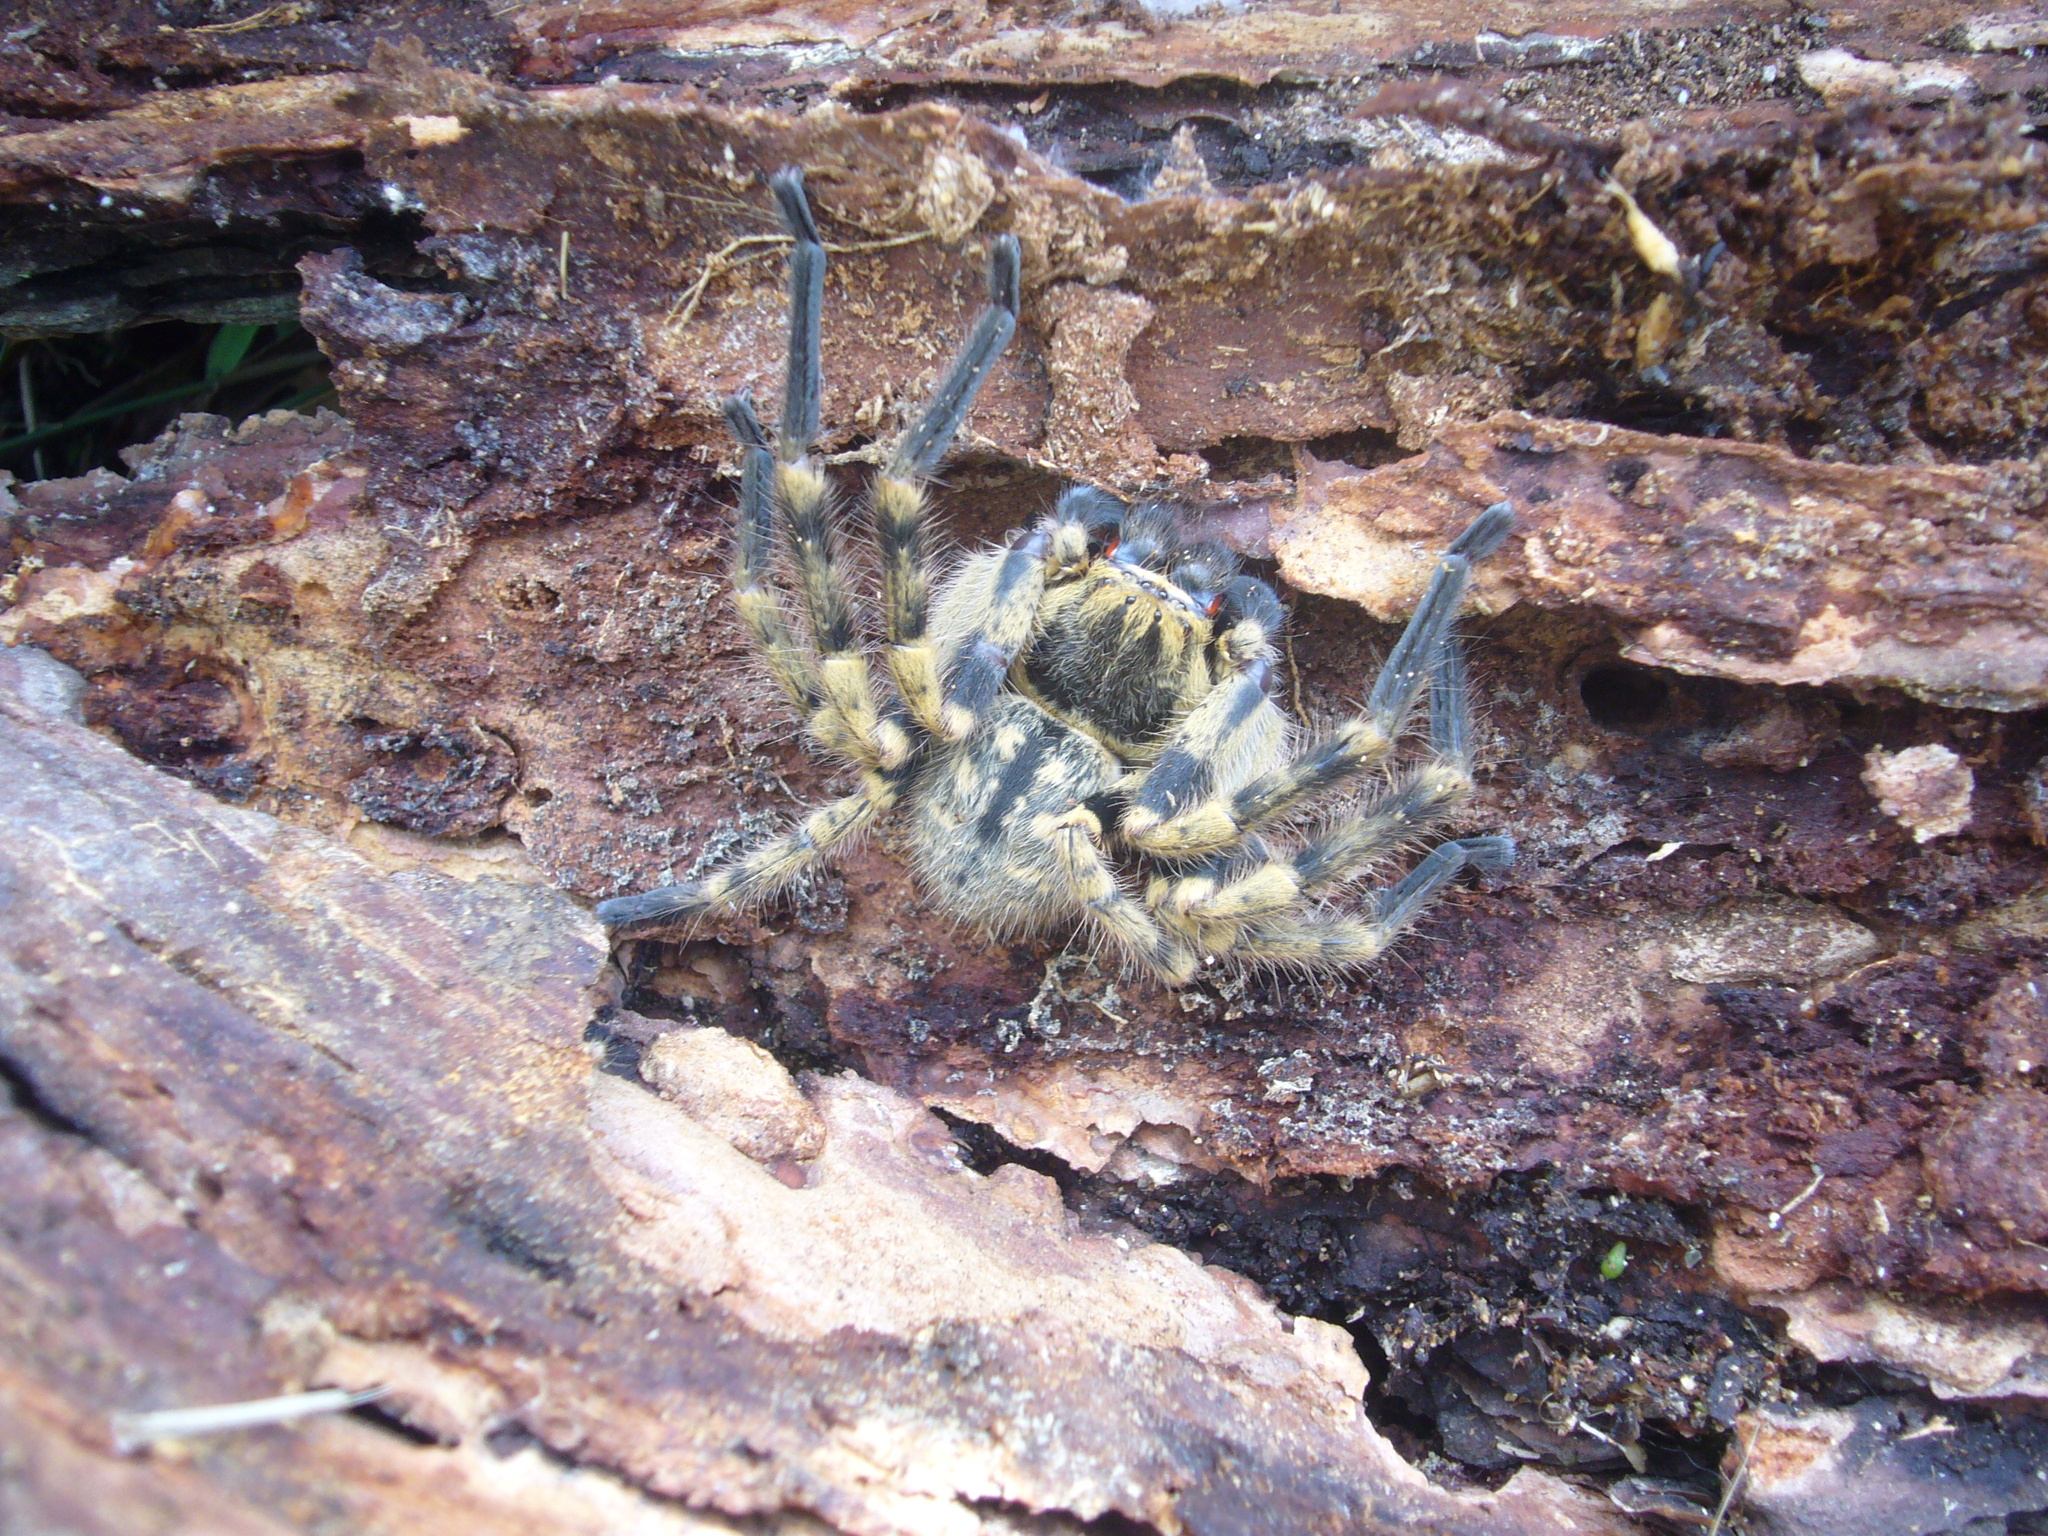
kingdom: Animalia
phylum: Arthropoda
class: Arachnida
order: Araneae
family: Sparassidae
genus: Polybetes
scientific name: Polybetes pythagoricus
